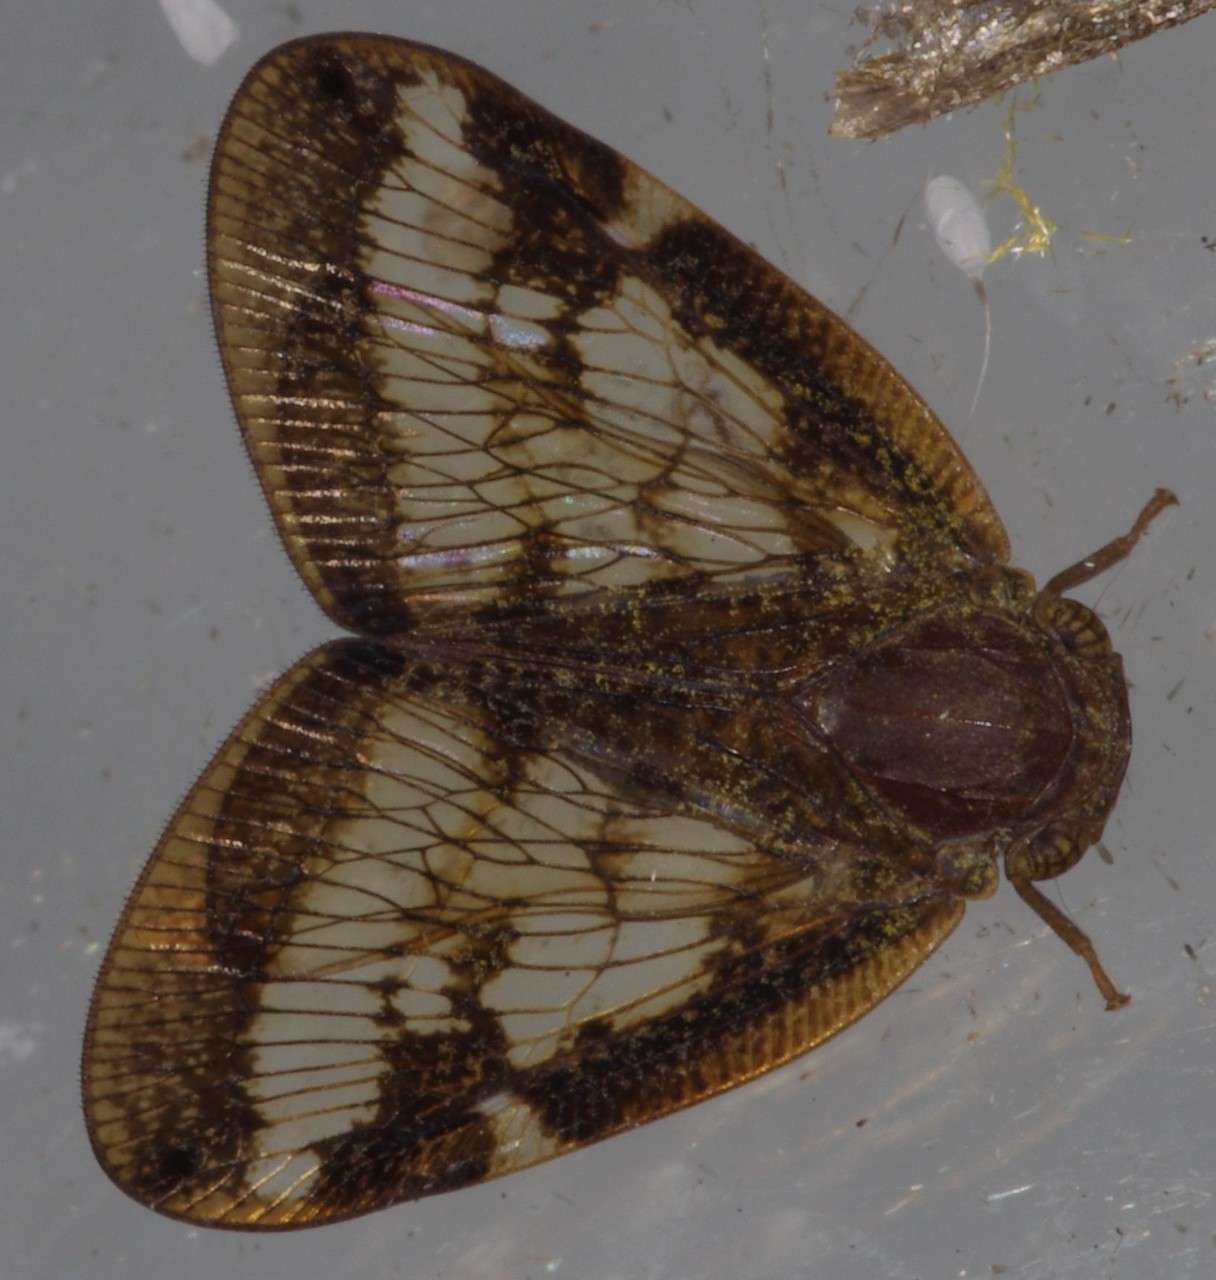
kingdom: Animalia
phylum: Arthropoda
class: Insecta
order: Hemiptera
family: Ricaniidae
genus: Scolypopa
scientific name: Scolypopa australis
